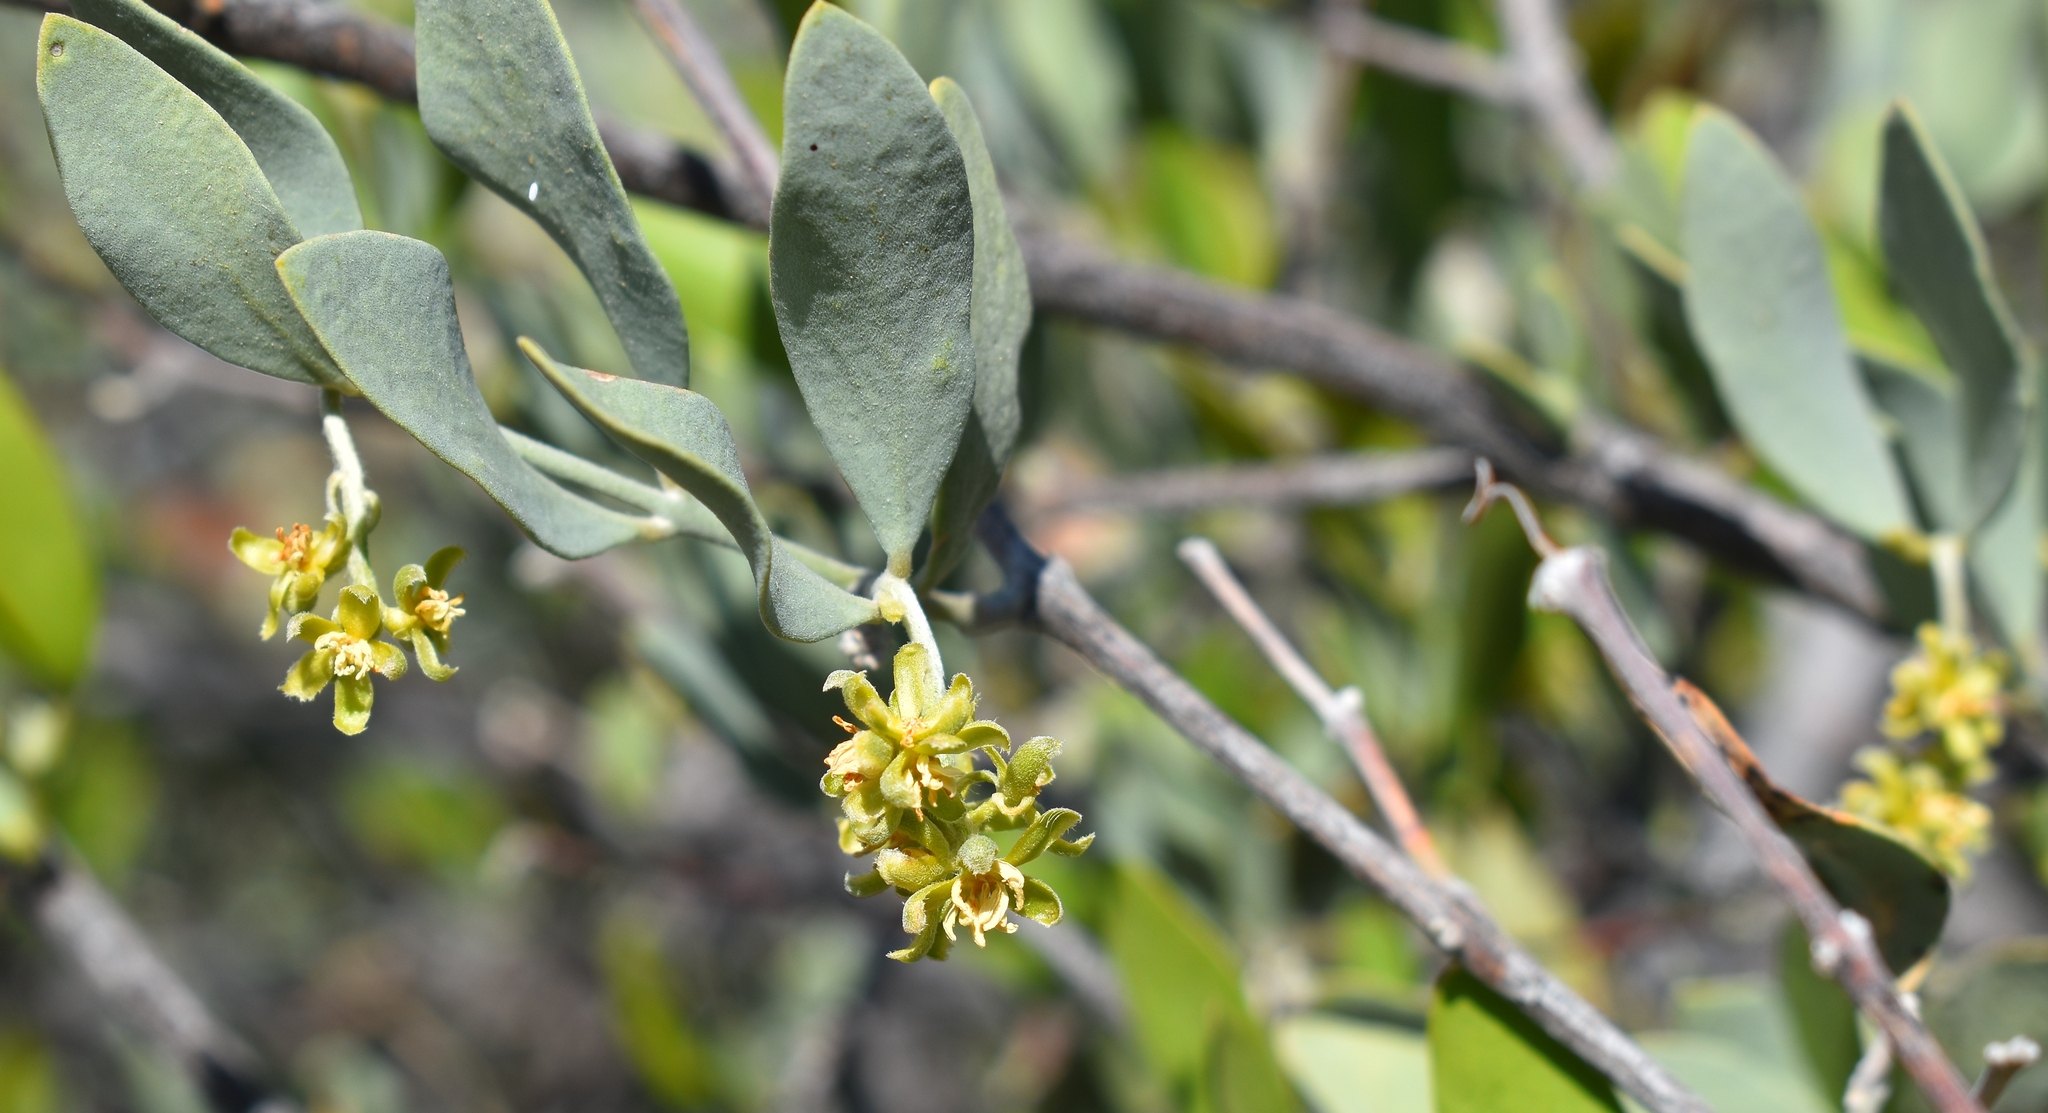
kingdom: Plantae
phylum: Tracheophyta
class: Magnoliopsida
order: Caryophyllales
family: Simmondsiaceae
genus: Simmondsia
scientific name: Simmondsia chinensis
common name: Jojoba
